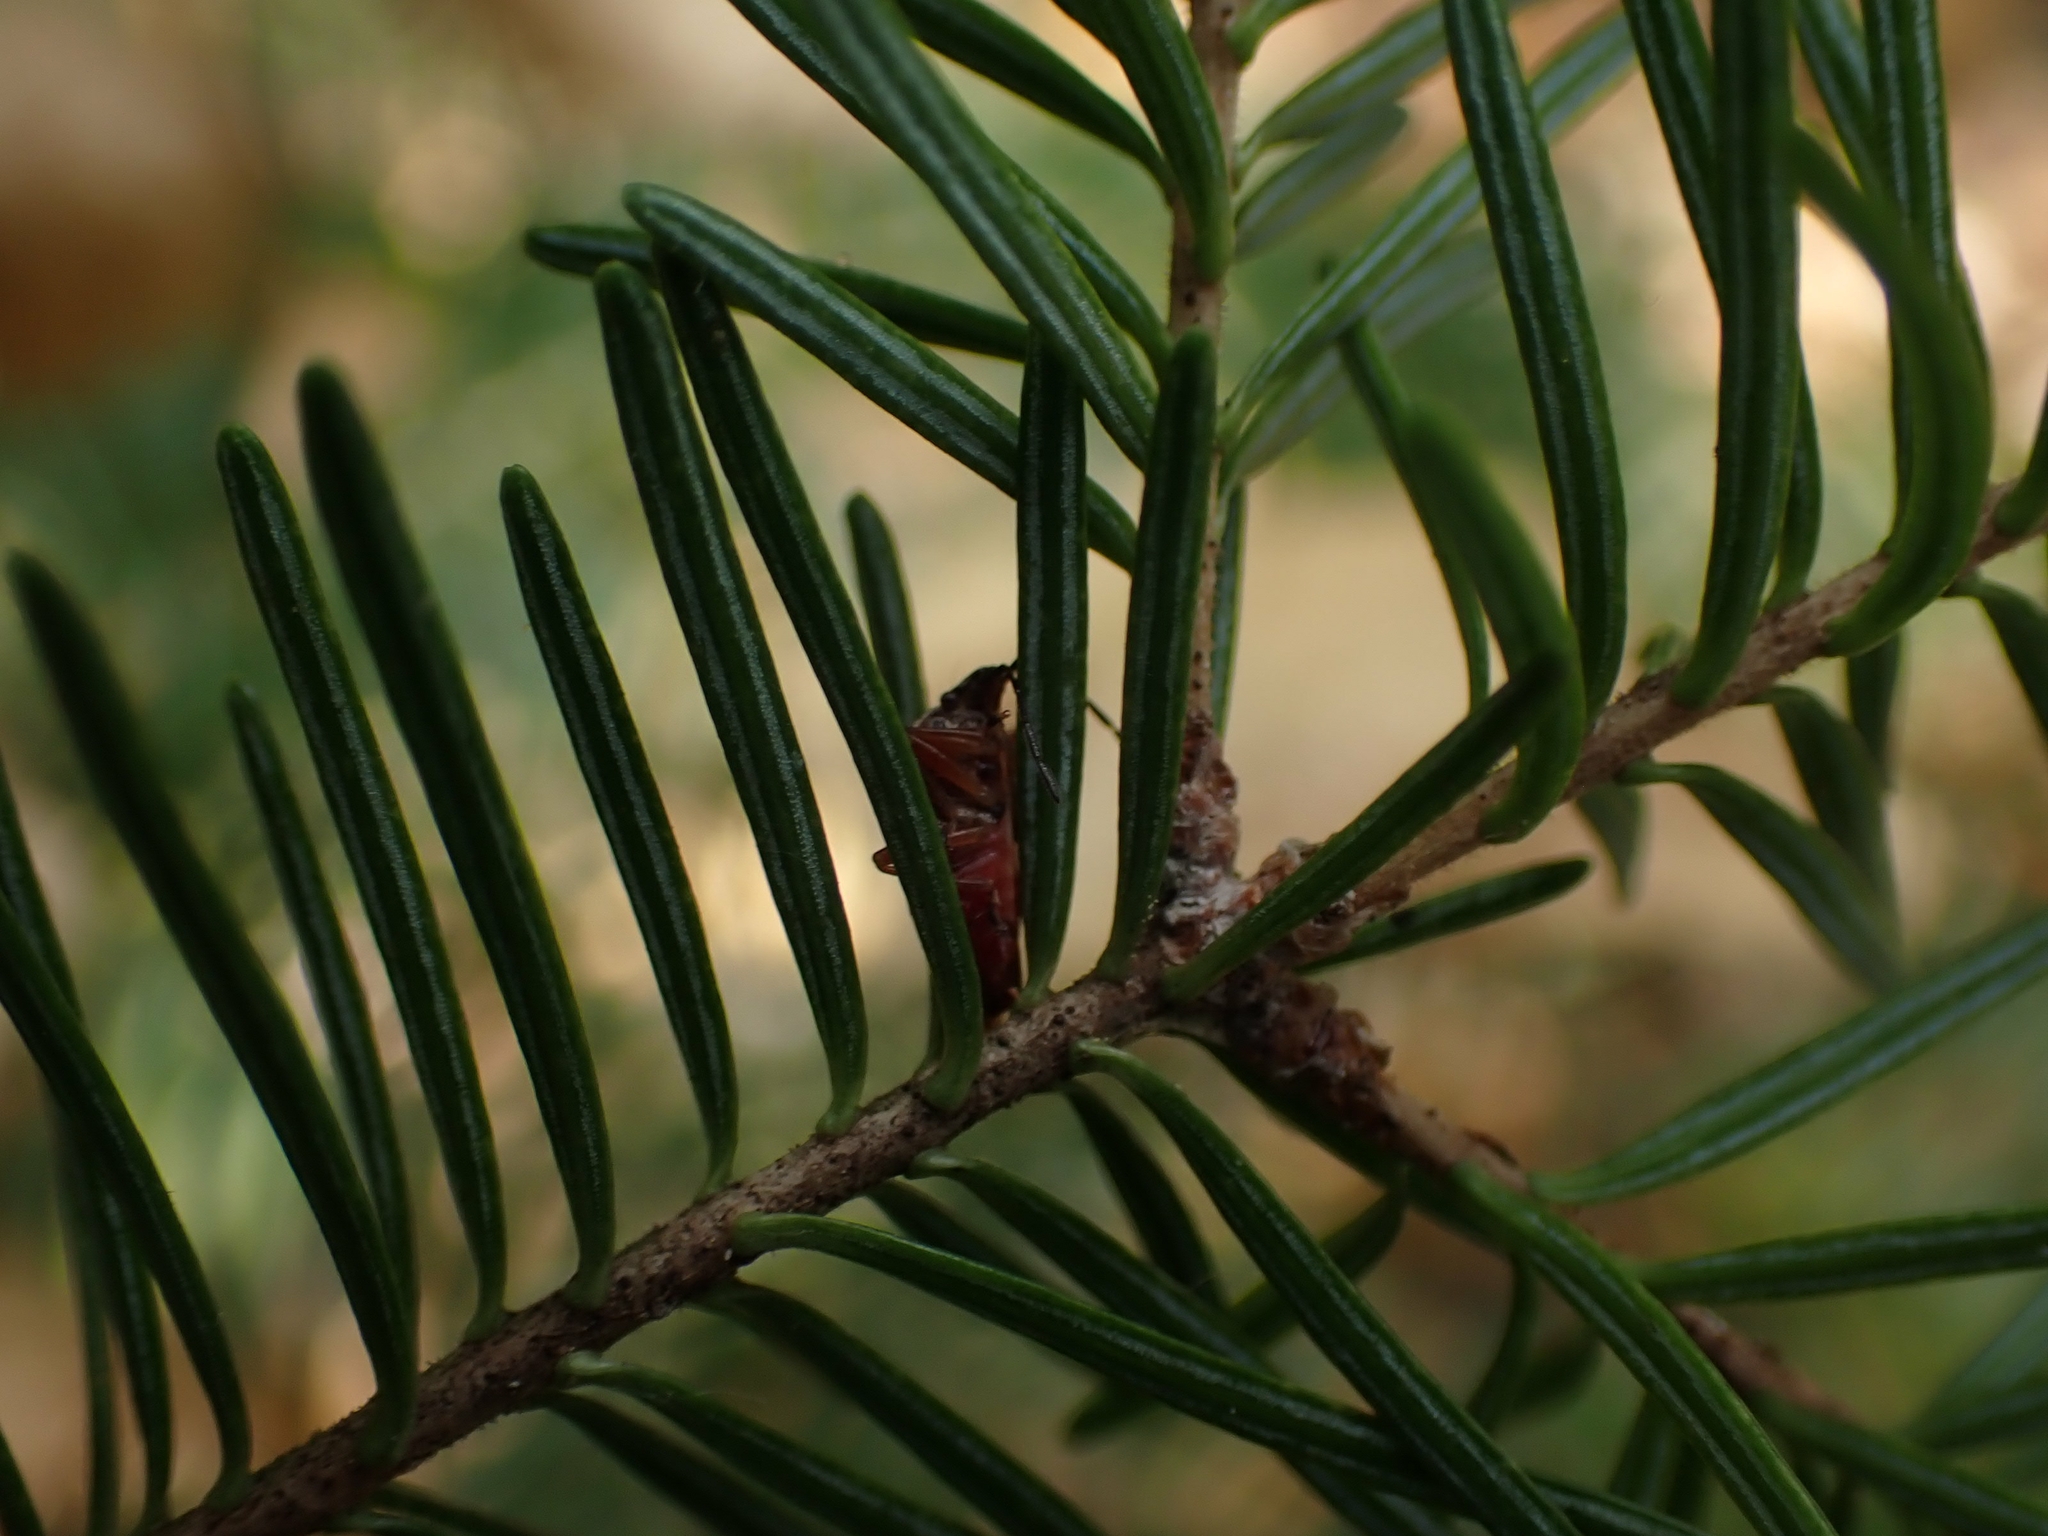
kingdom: Plantae
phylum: Tracheophyta
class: Pinopsida
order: Pinales
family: Pinaceae
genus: Abies
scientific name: Abies balsamea
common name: Balsam fir
